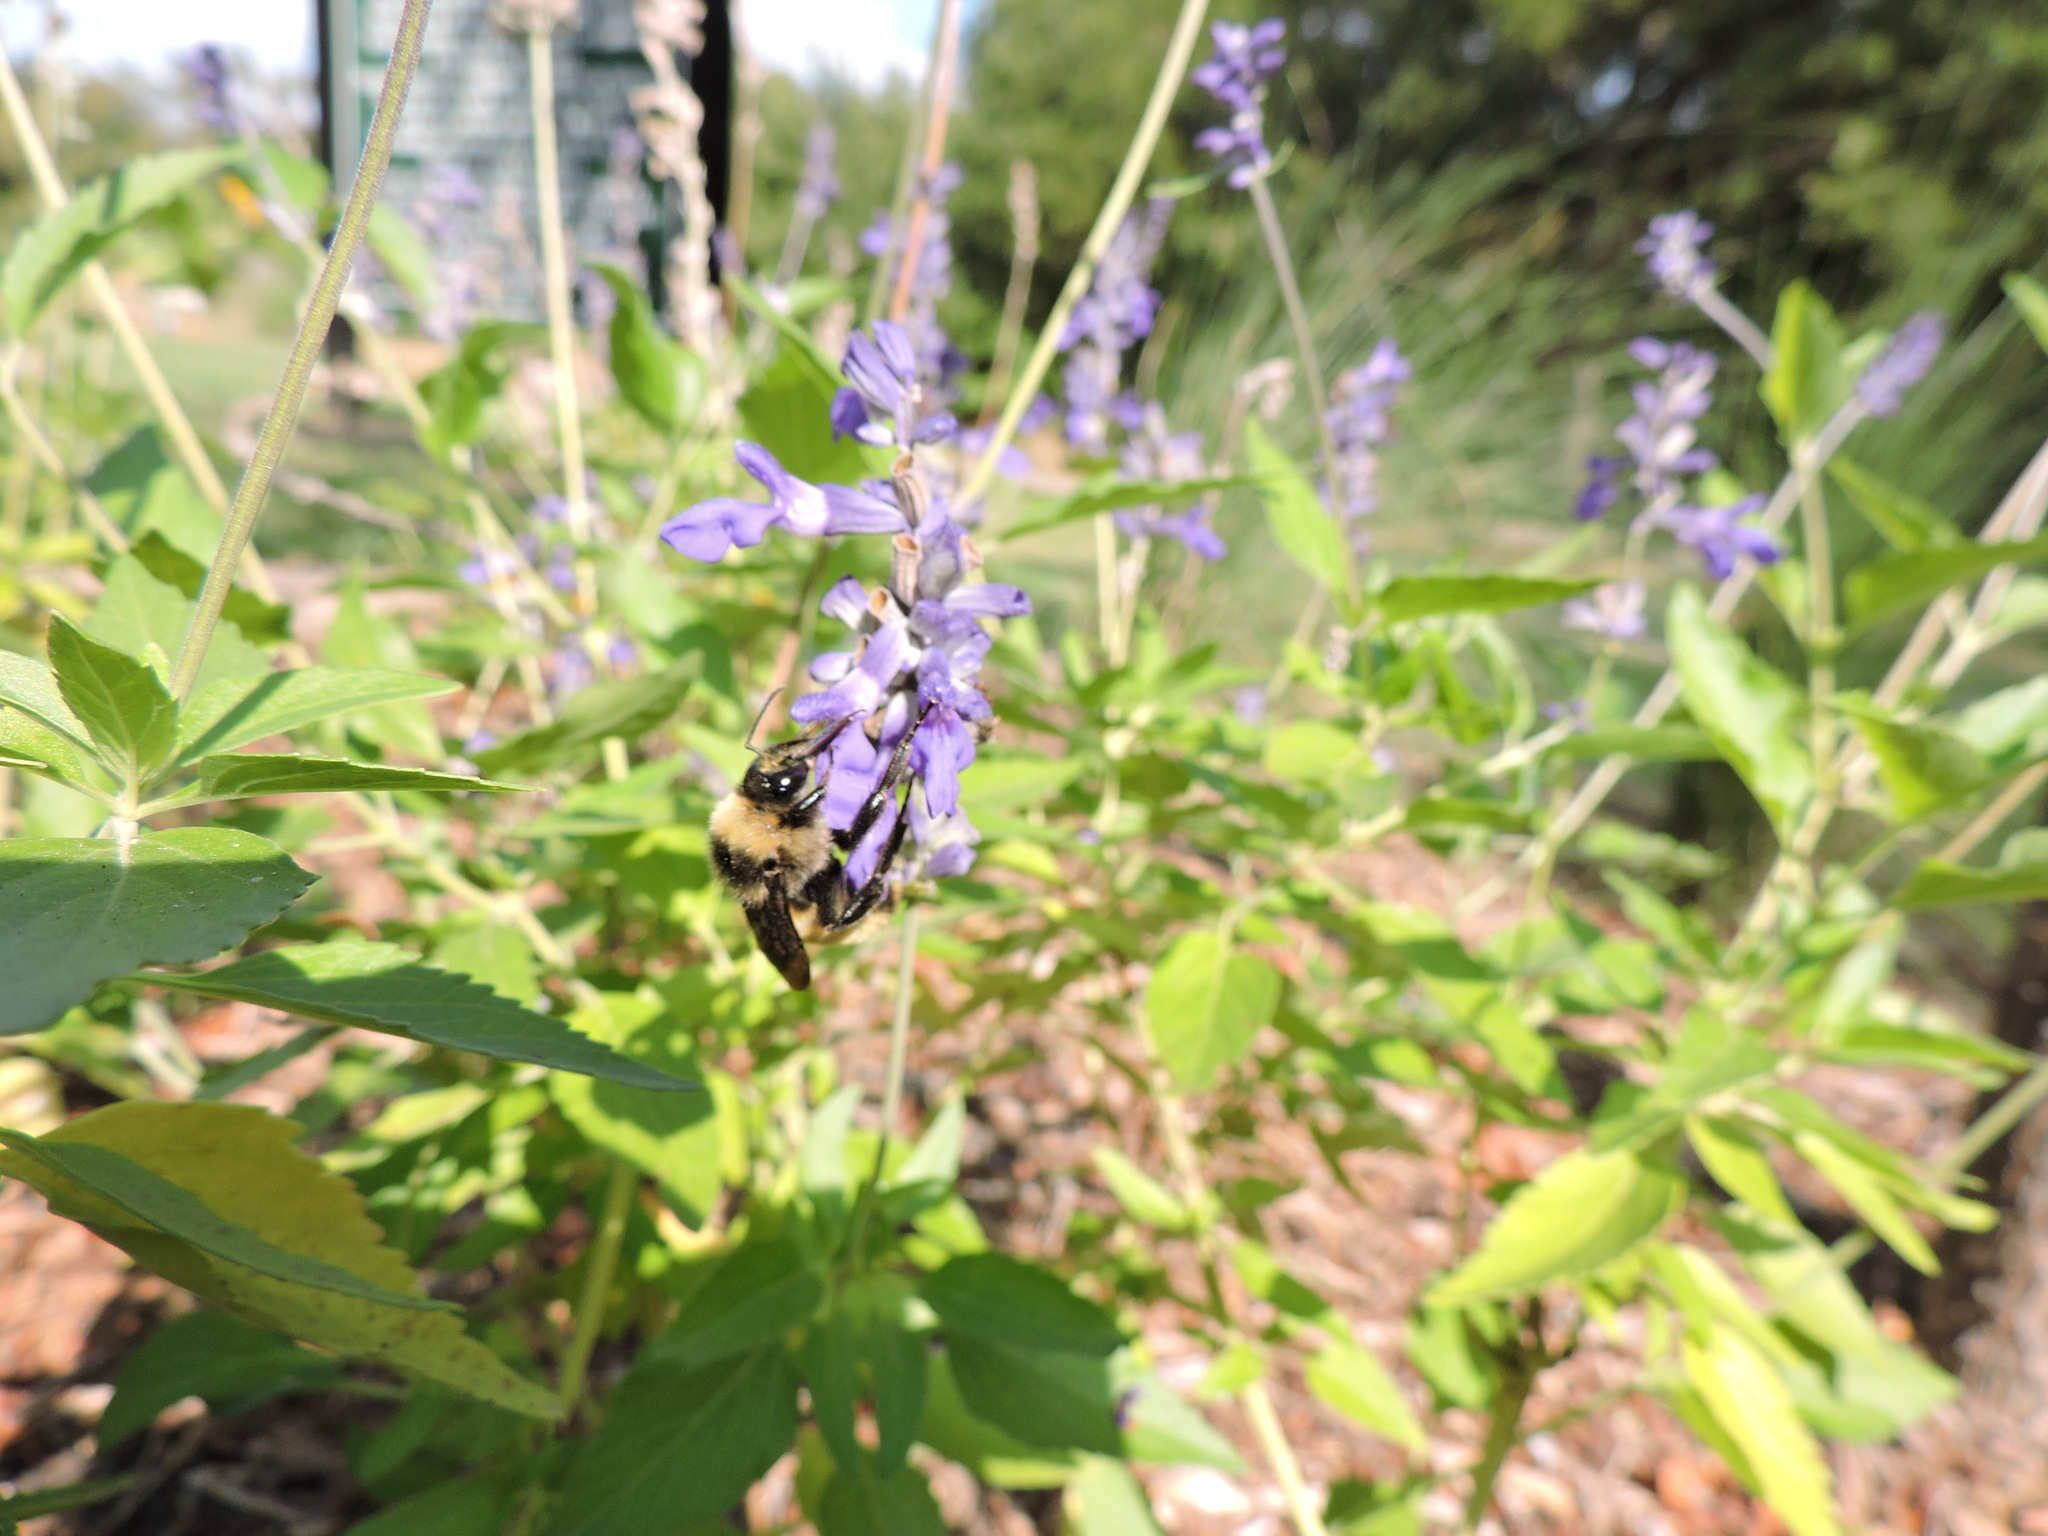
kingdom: Animalia
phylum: Arthropoda
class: Insecta
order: Hymenoptera
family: Apidae
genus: Bombus
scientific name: Bombus pensylvanicus
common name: Bumble bee
